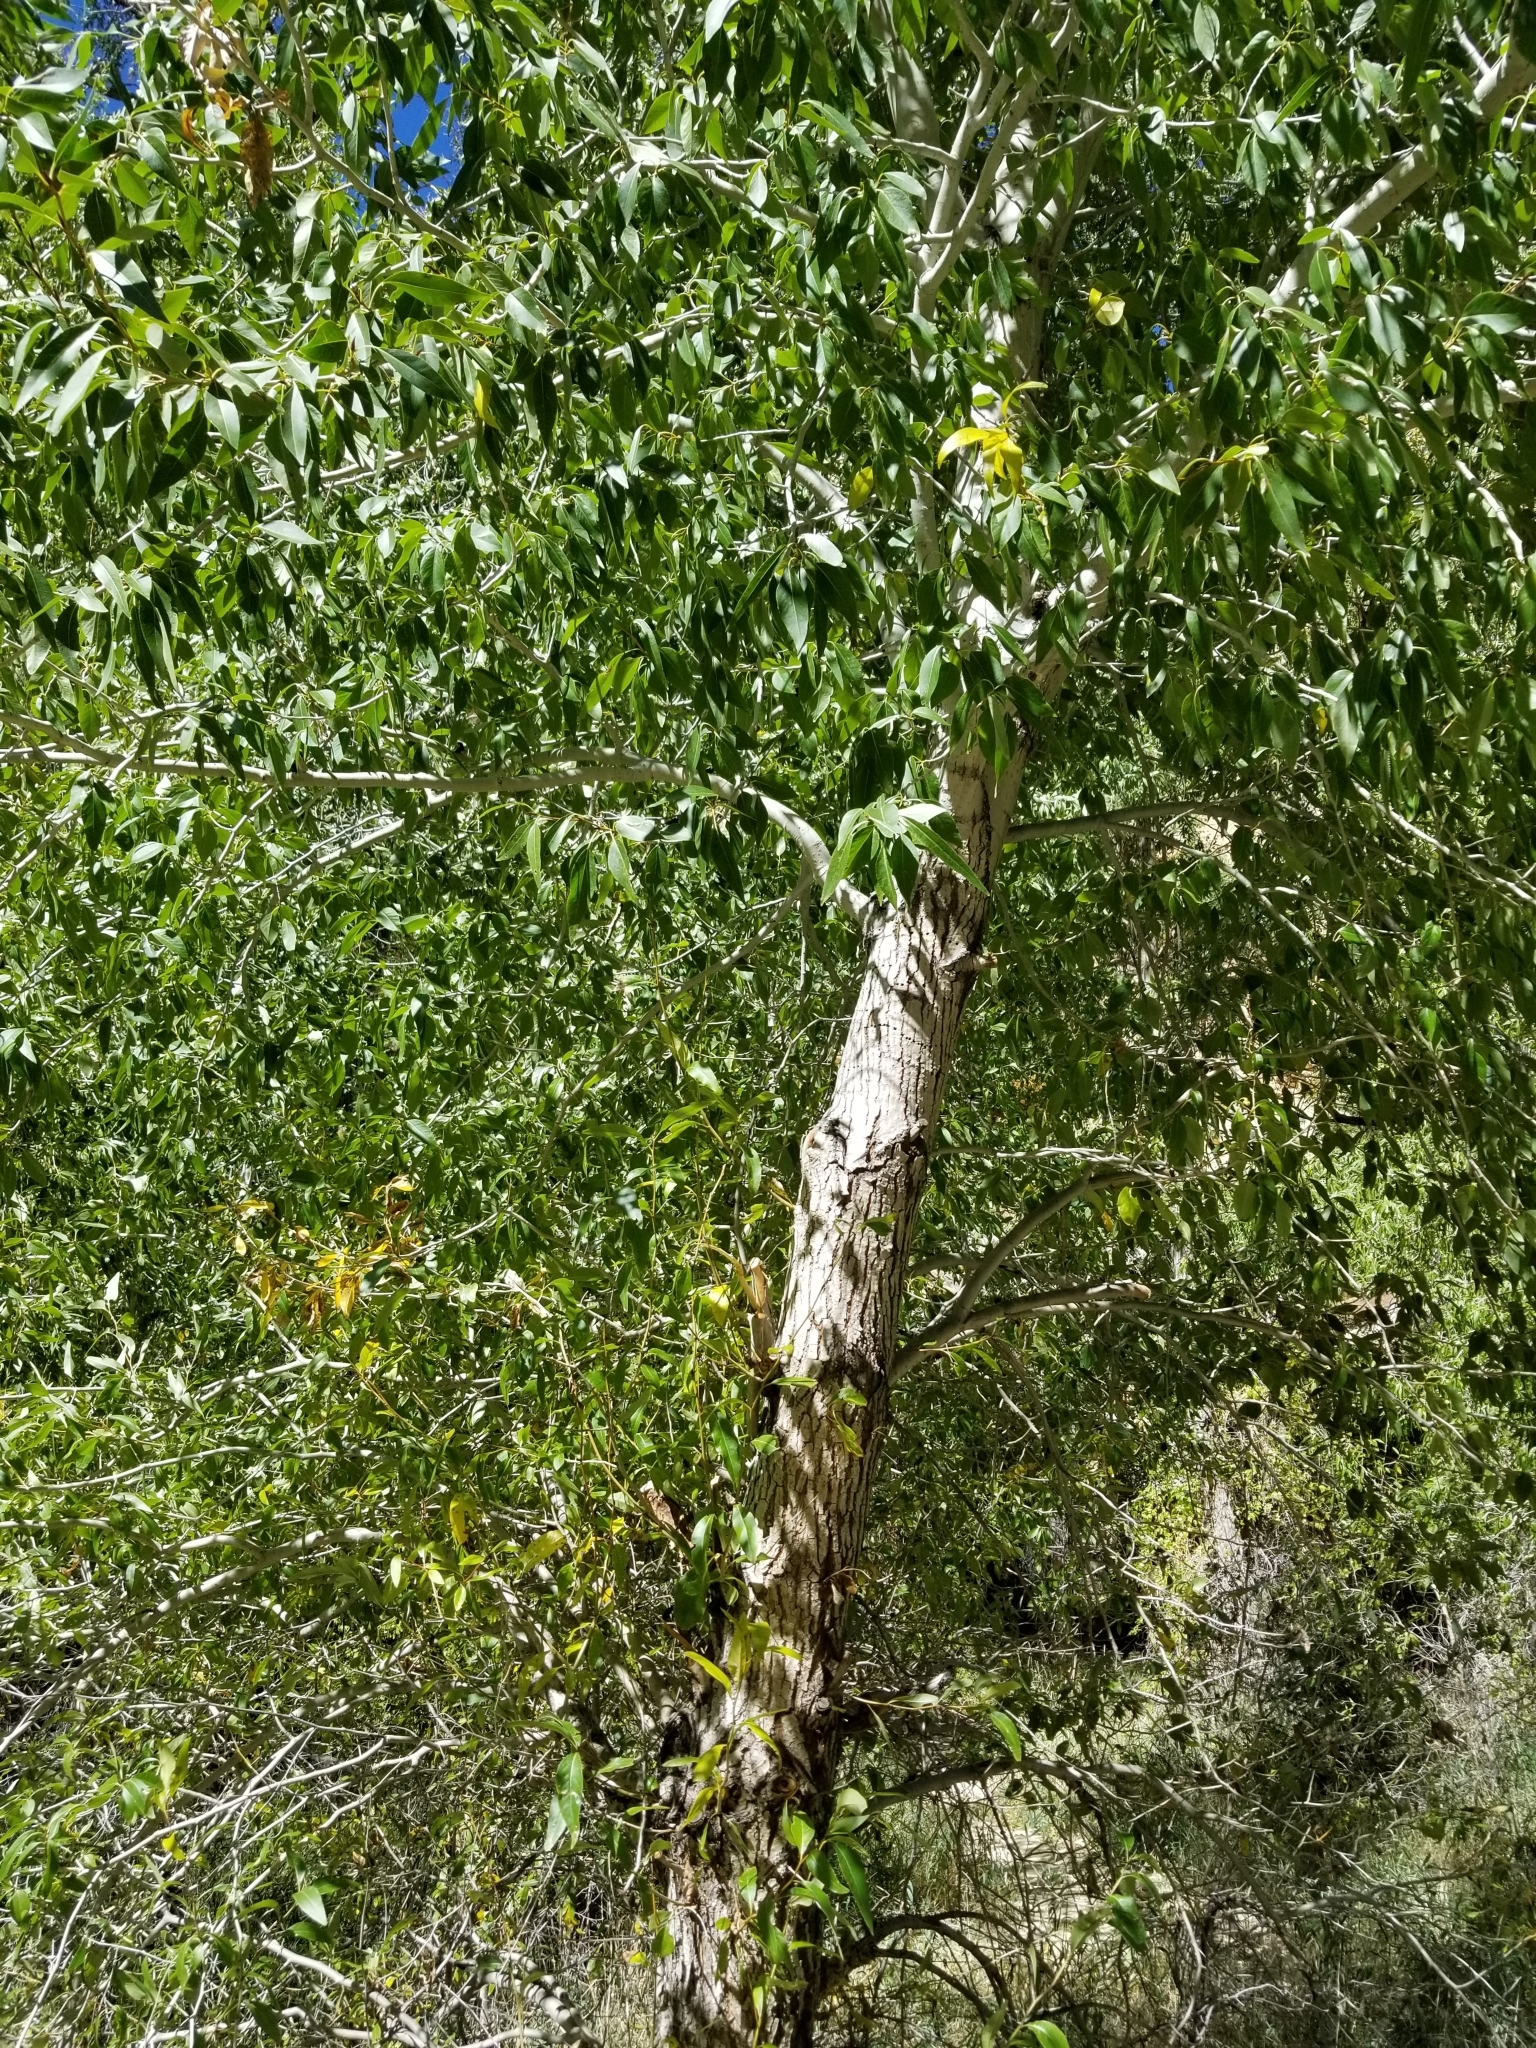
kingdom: Plantae
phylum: Tracheophyta
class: Magnoliopsida
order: Malpighiales
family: Salicaceae
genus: Populus
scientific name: Populus angustifolia
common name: Willow cottonwood
